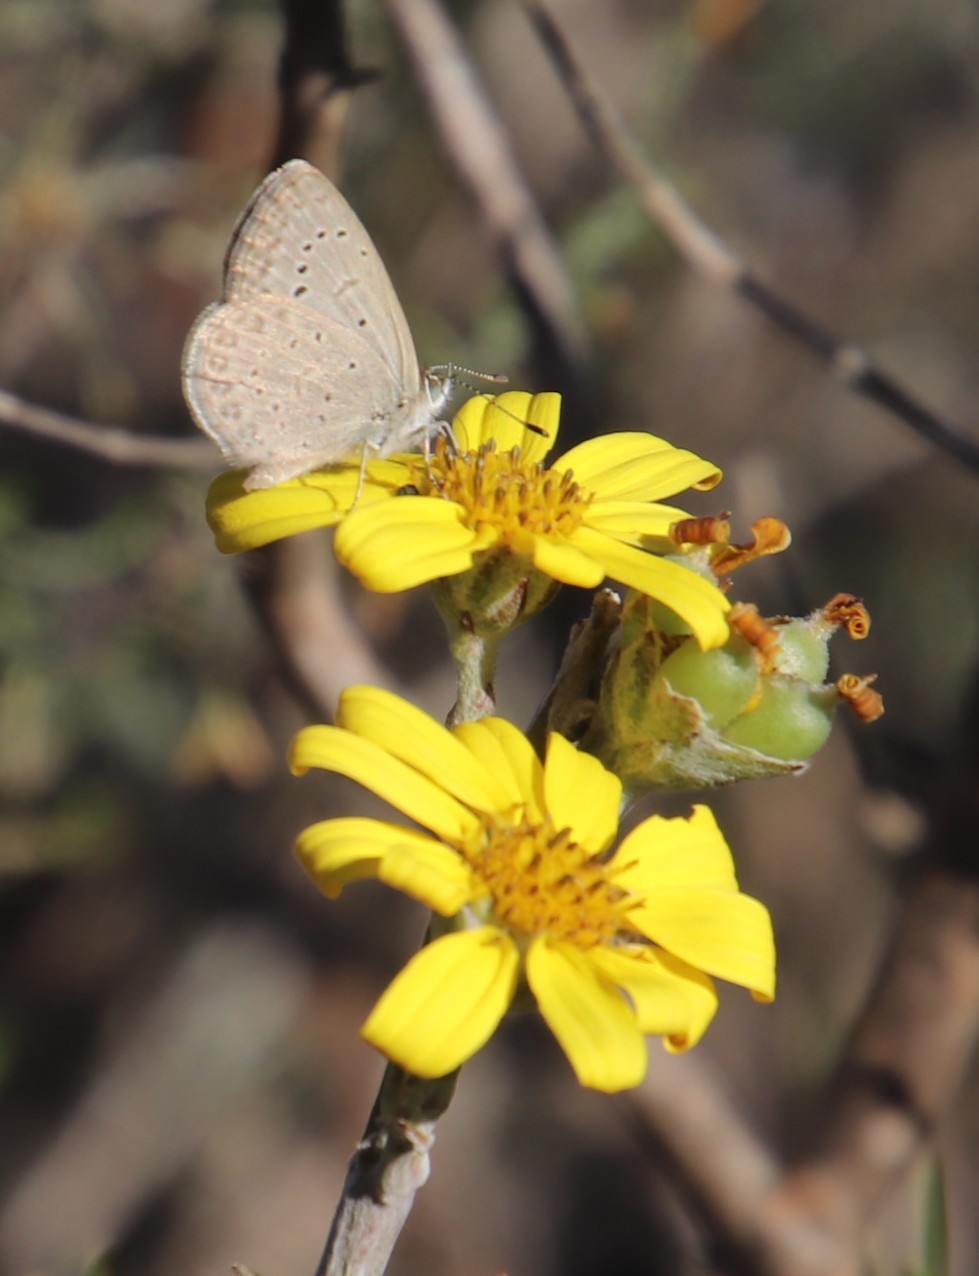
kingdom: Animalia
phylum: Arthropoda
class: Insecta
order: Lepidoptera
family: Lycaenidae
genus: Zizeeria
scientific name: Zizeeria knysna
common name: African grass blue
